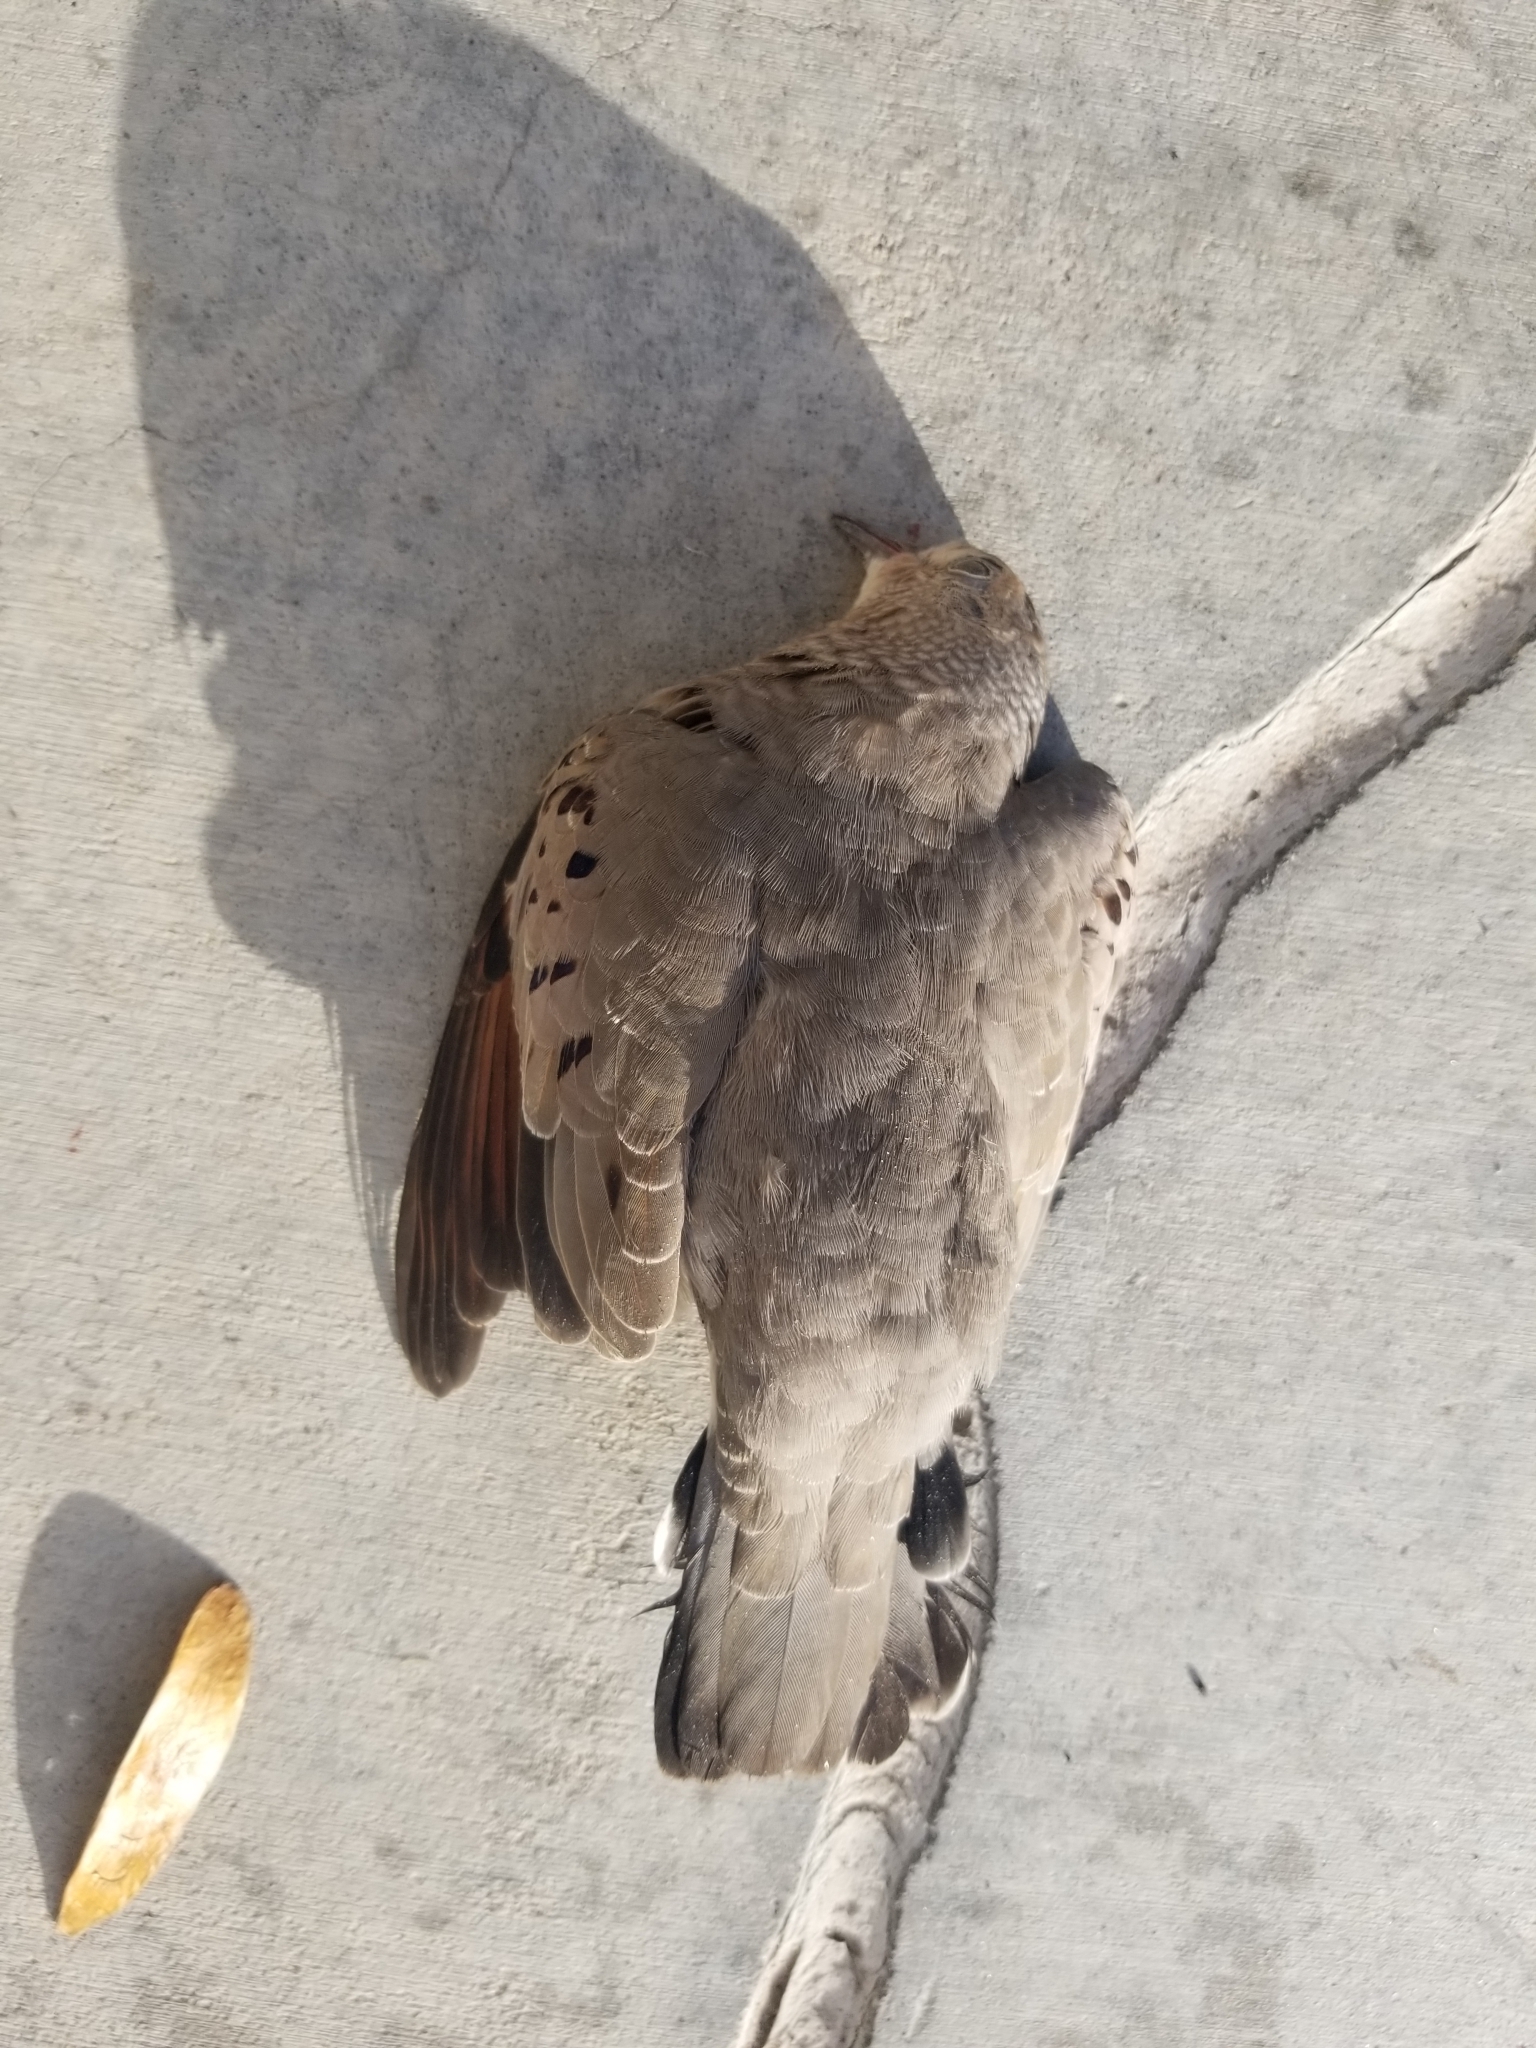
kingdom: Animalia
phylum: Chordata
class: Aves
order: Columbiformes
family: Columbidae
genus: Columbina
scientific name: Columbina passerina
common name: Common ground-dove
